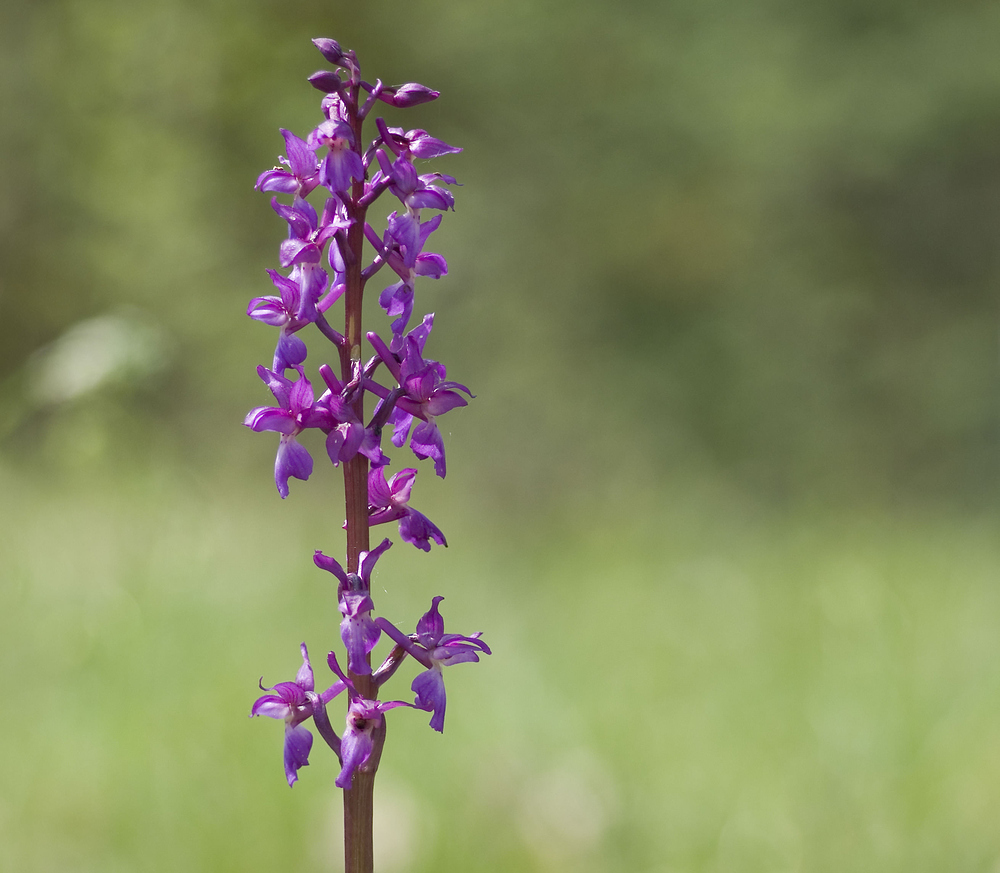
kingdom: Plantae
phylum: Tracheophyta
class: Liliopsida
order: Asparagales
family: Orchidaceae
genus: Orchis
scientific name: Orchis mascula
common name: Early-purple orchid
